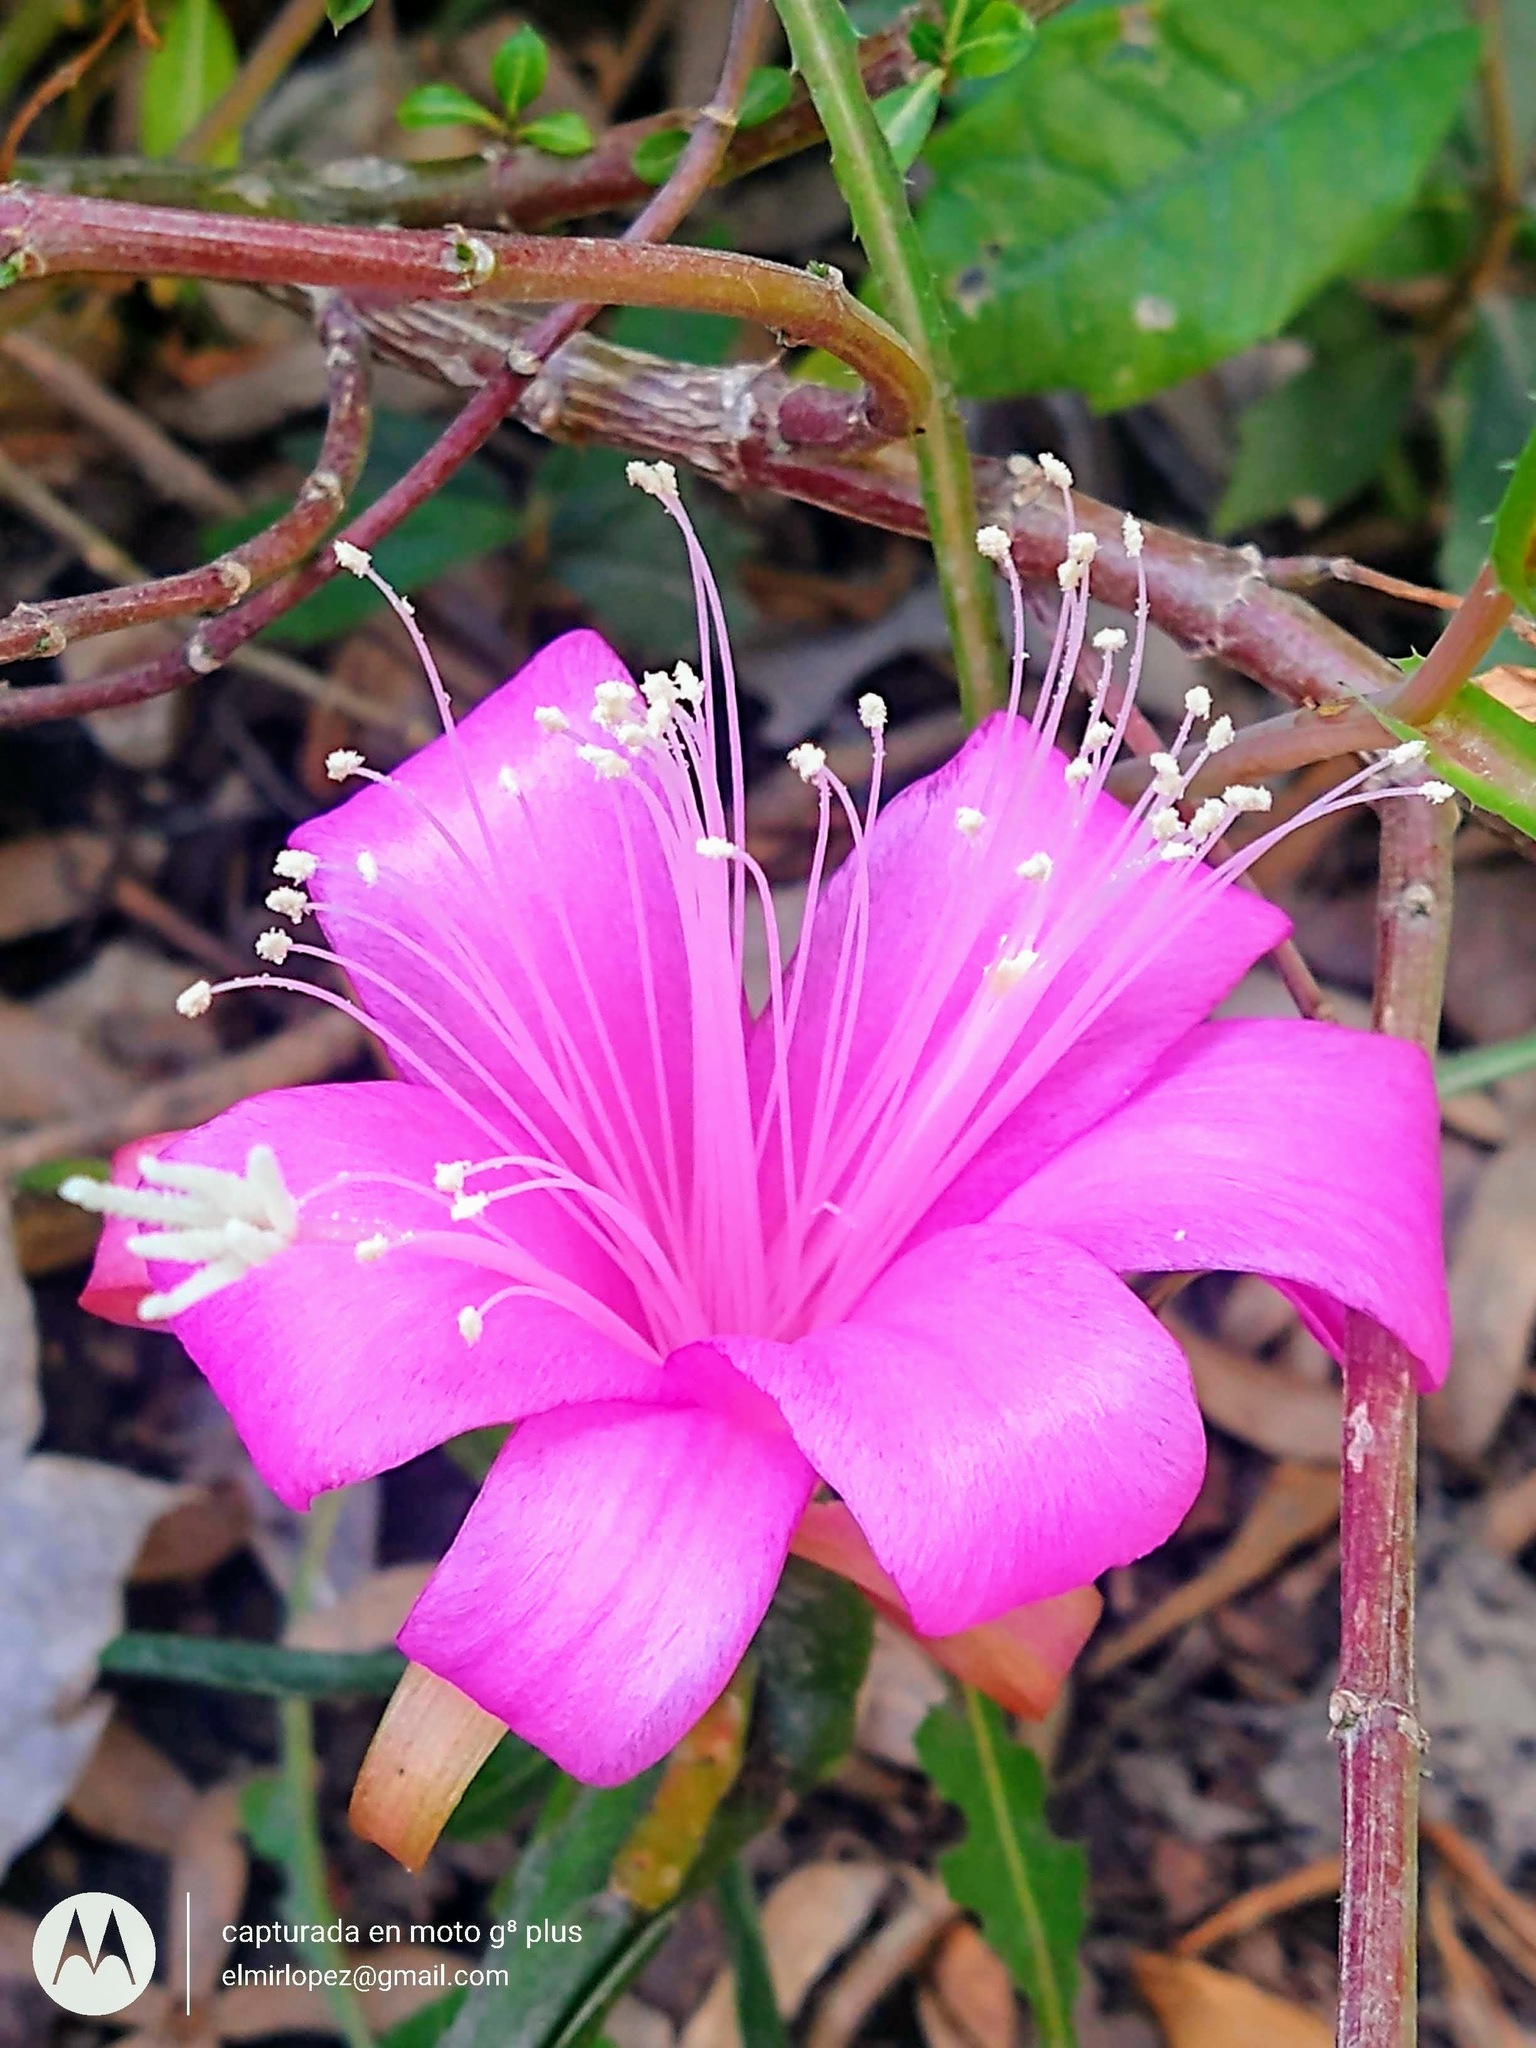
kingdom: Plantae
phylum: Tracheophyta
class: Magnoliopsida
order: Caryophyllales
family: Cactaceae
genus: Disocactus
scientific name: Disocactus nelsonii
